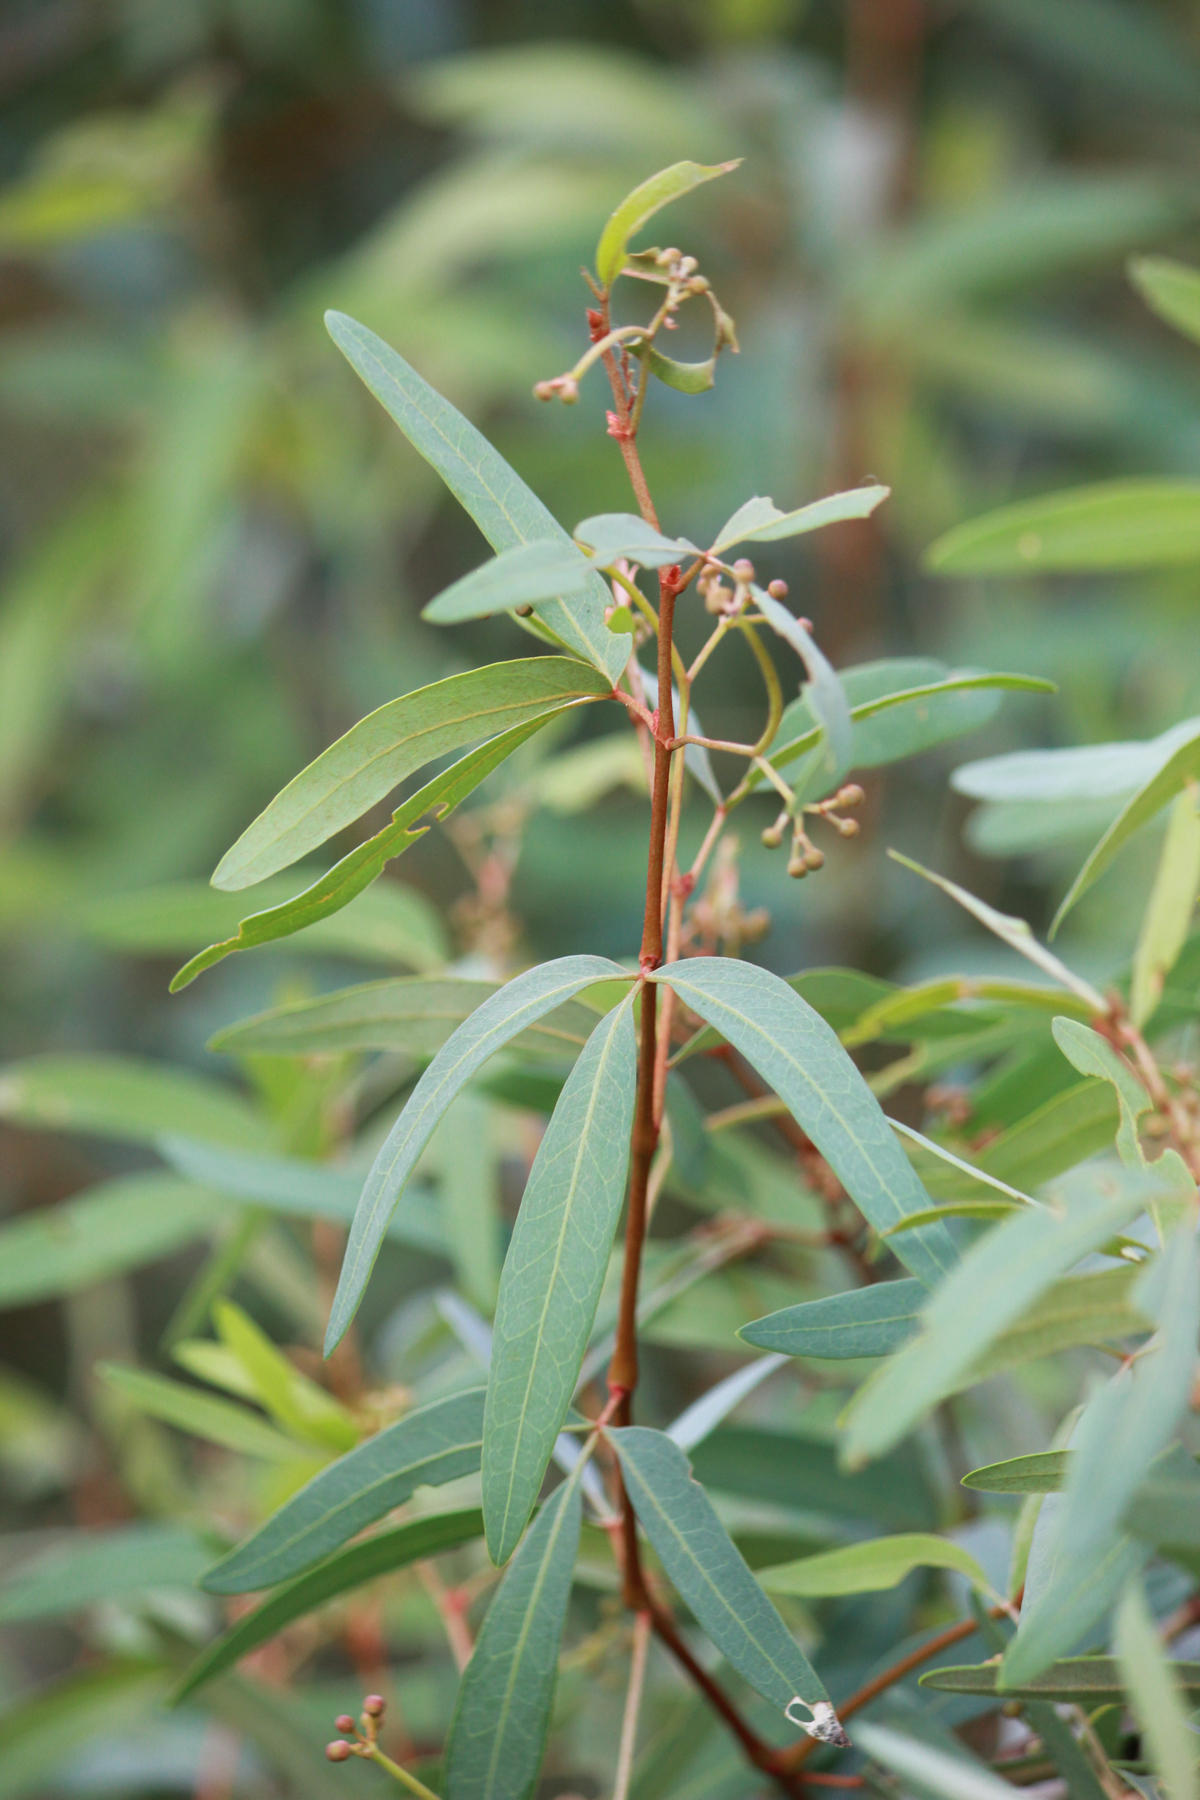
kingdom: Plantae
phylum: Tracheophyta
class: Magnoliopsida
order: Vitales
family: Vitaceae
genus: Rhoicissus
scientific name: Rhoicissus revoilii
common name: Bushveld grape
